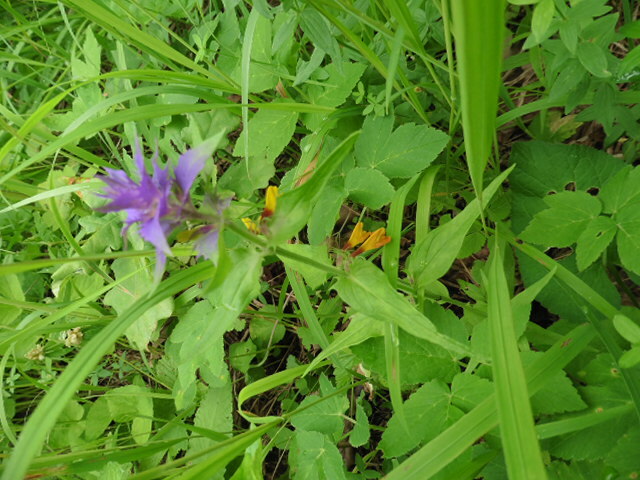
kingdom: Plantae
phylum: Tracheophyta
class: Magnoliopsida
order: Lamiales
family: Orobanchaceae
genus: Melampyrum
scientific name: Melampyrum nemorosum
